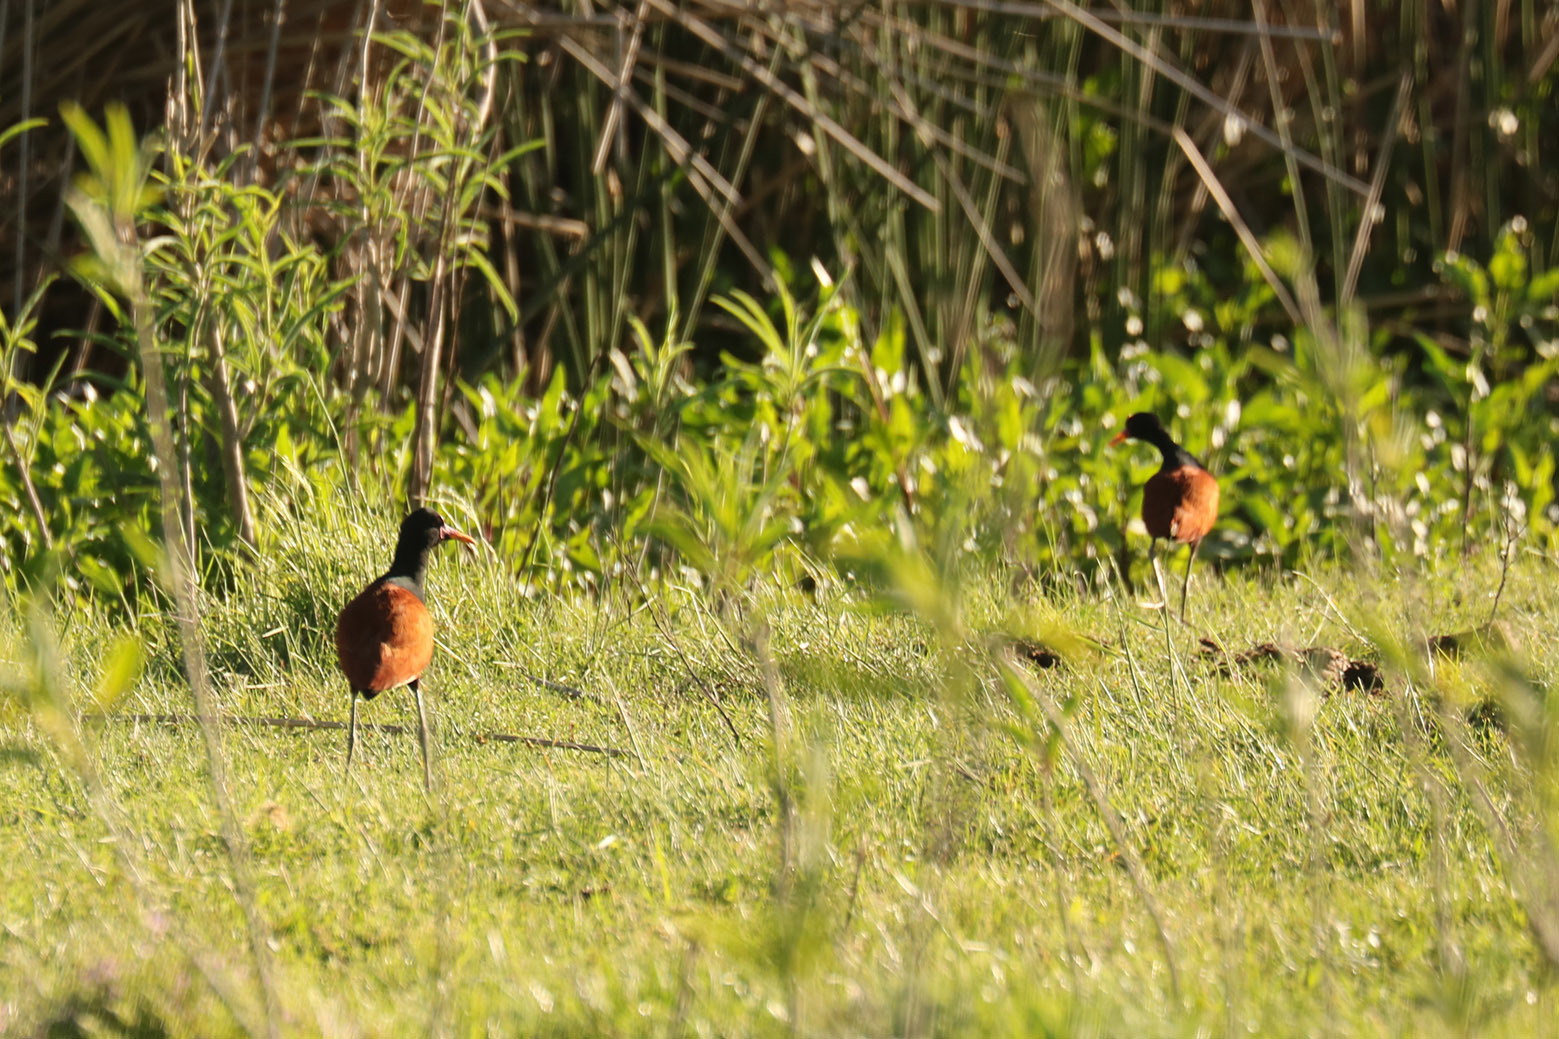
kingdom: Animalia
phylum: Chordata
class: Aves
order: Charadriiformes
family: Jacanidae
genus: Jacana
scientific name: Jacana jacana
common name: Wattled jacana
